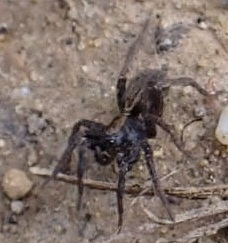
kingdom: Animalia
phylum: Arthropoda
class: Arachnida
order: Araneae
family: Lycosidae
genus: Alopecosa
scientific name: Alopecosa pulverulenta
